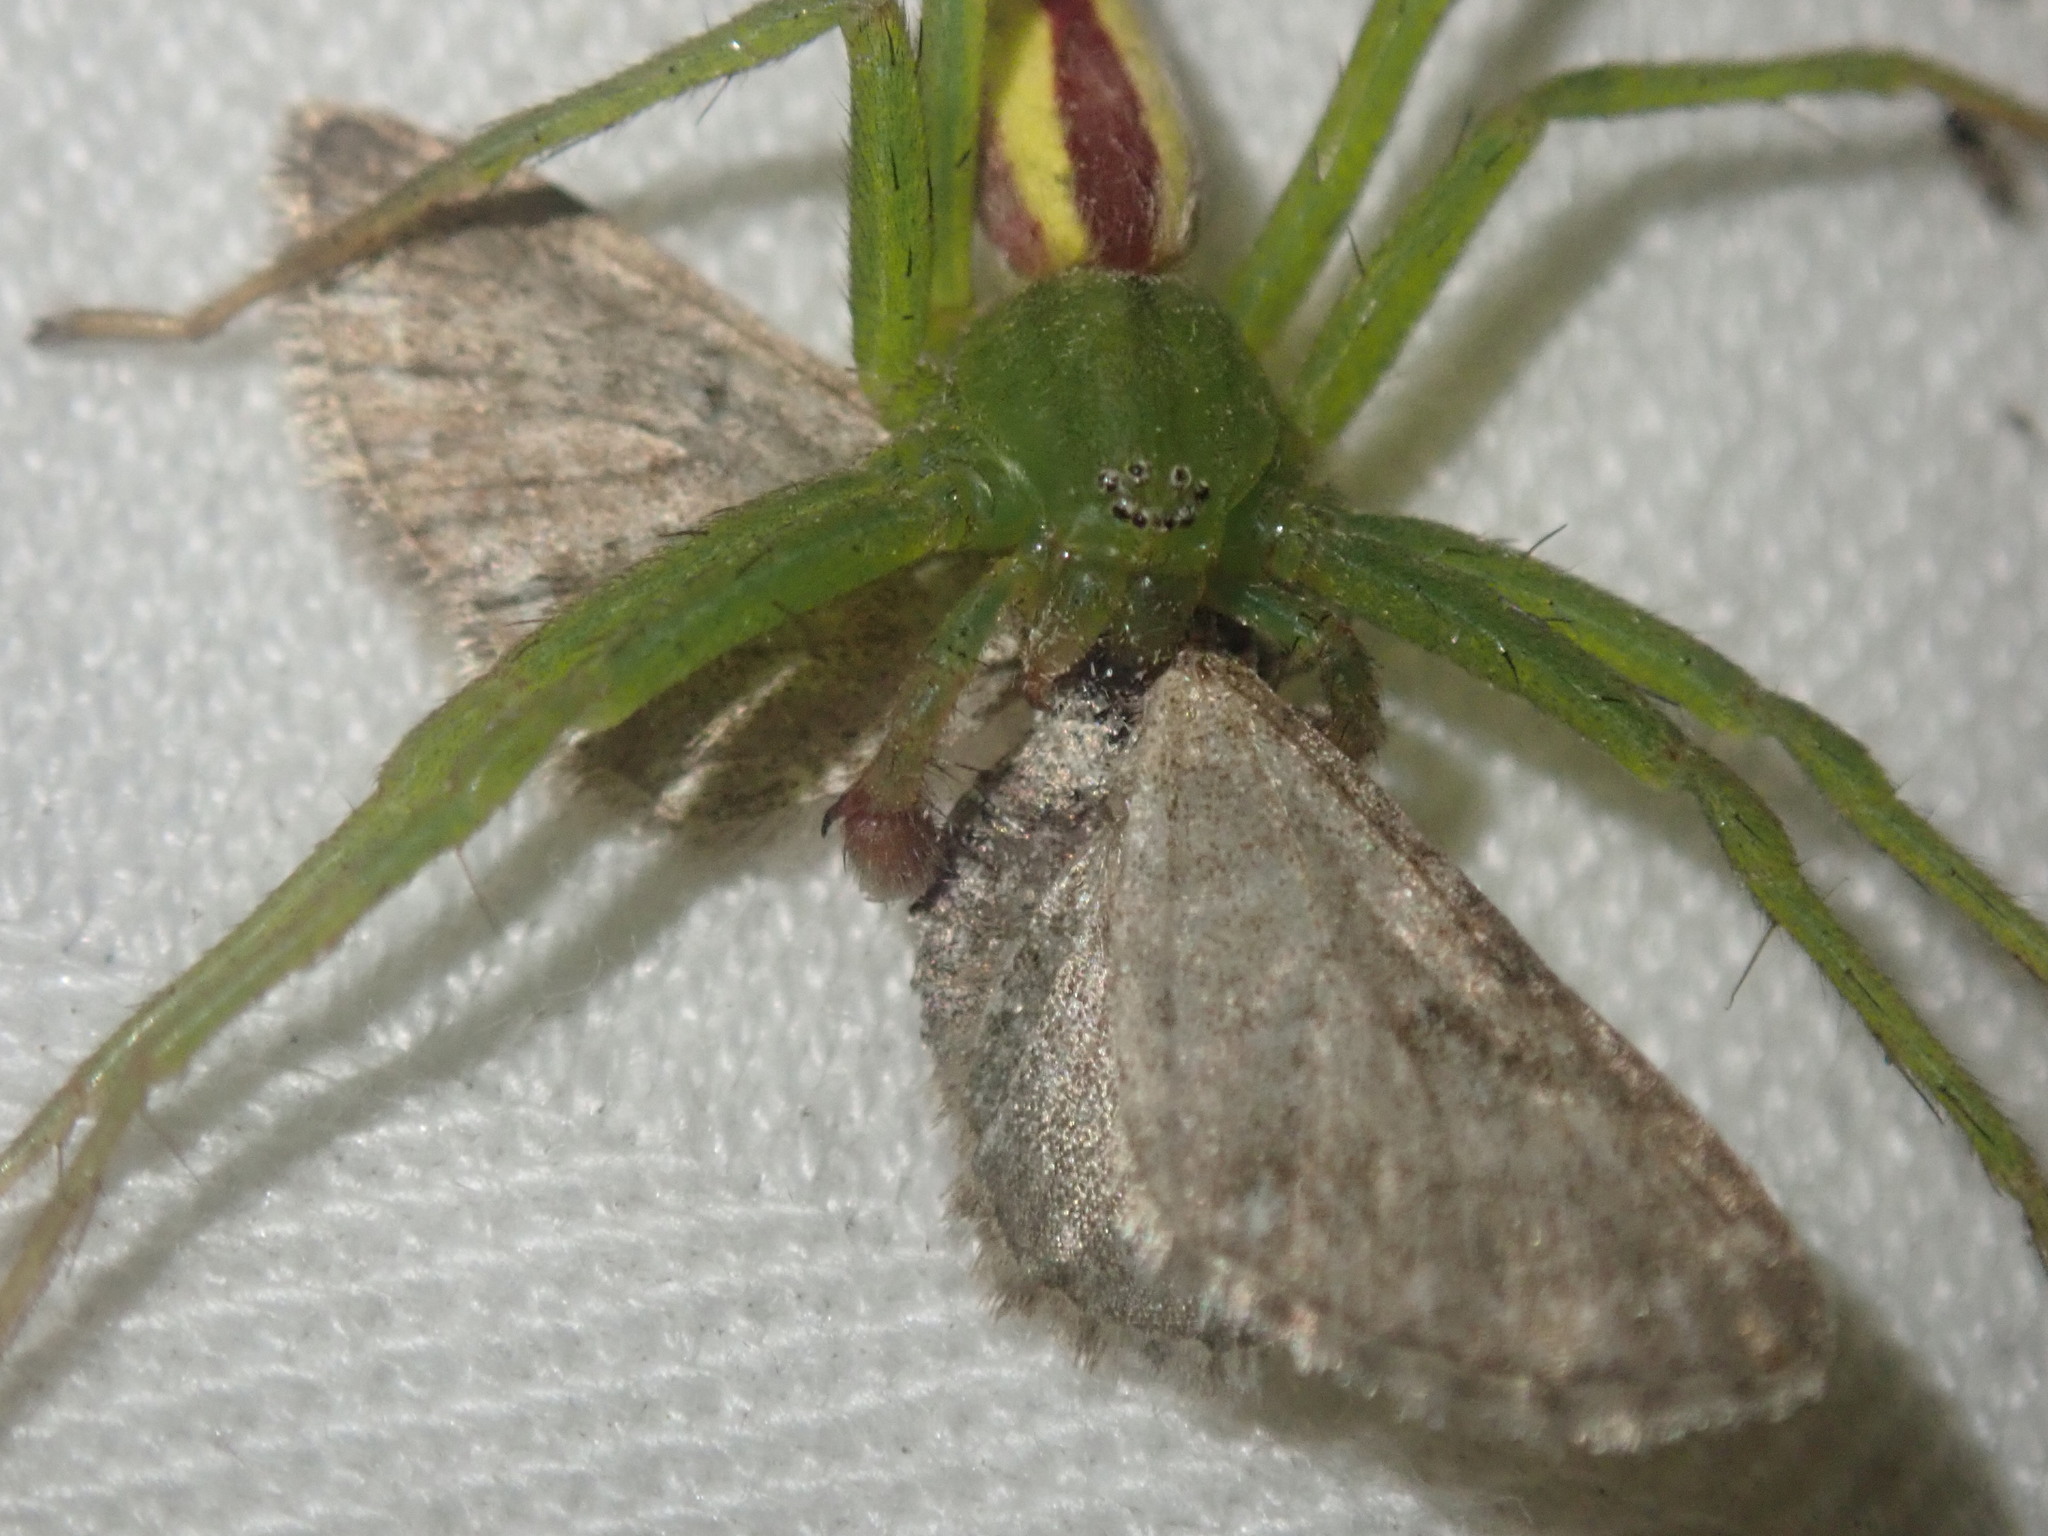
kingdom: Animalia
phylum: Arthropoda
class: Arachnida
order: Araneae
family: Sparassidae
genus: Micrommata
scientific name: Micrommata virescens
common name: Green spider
